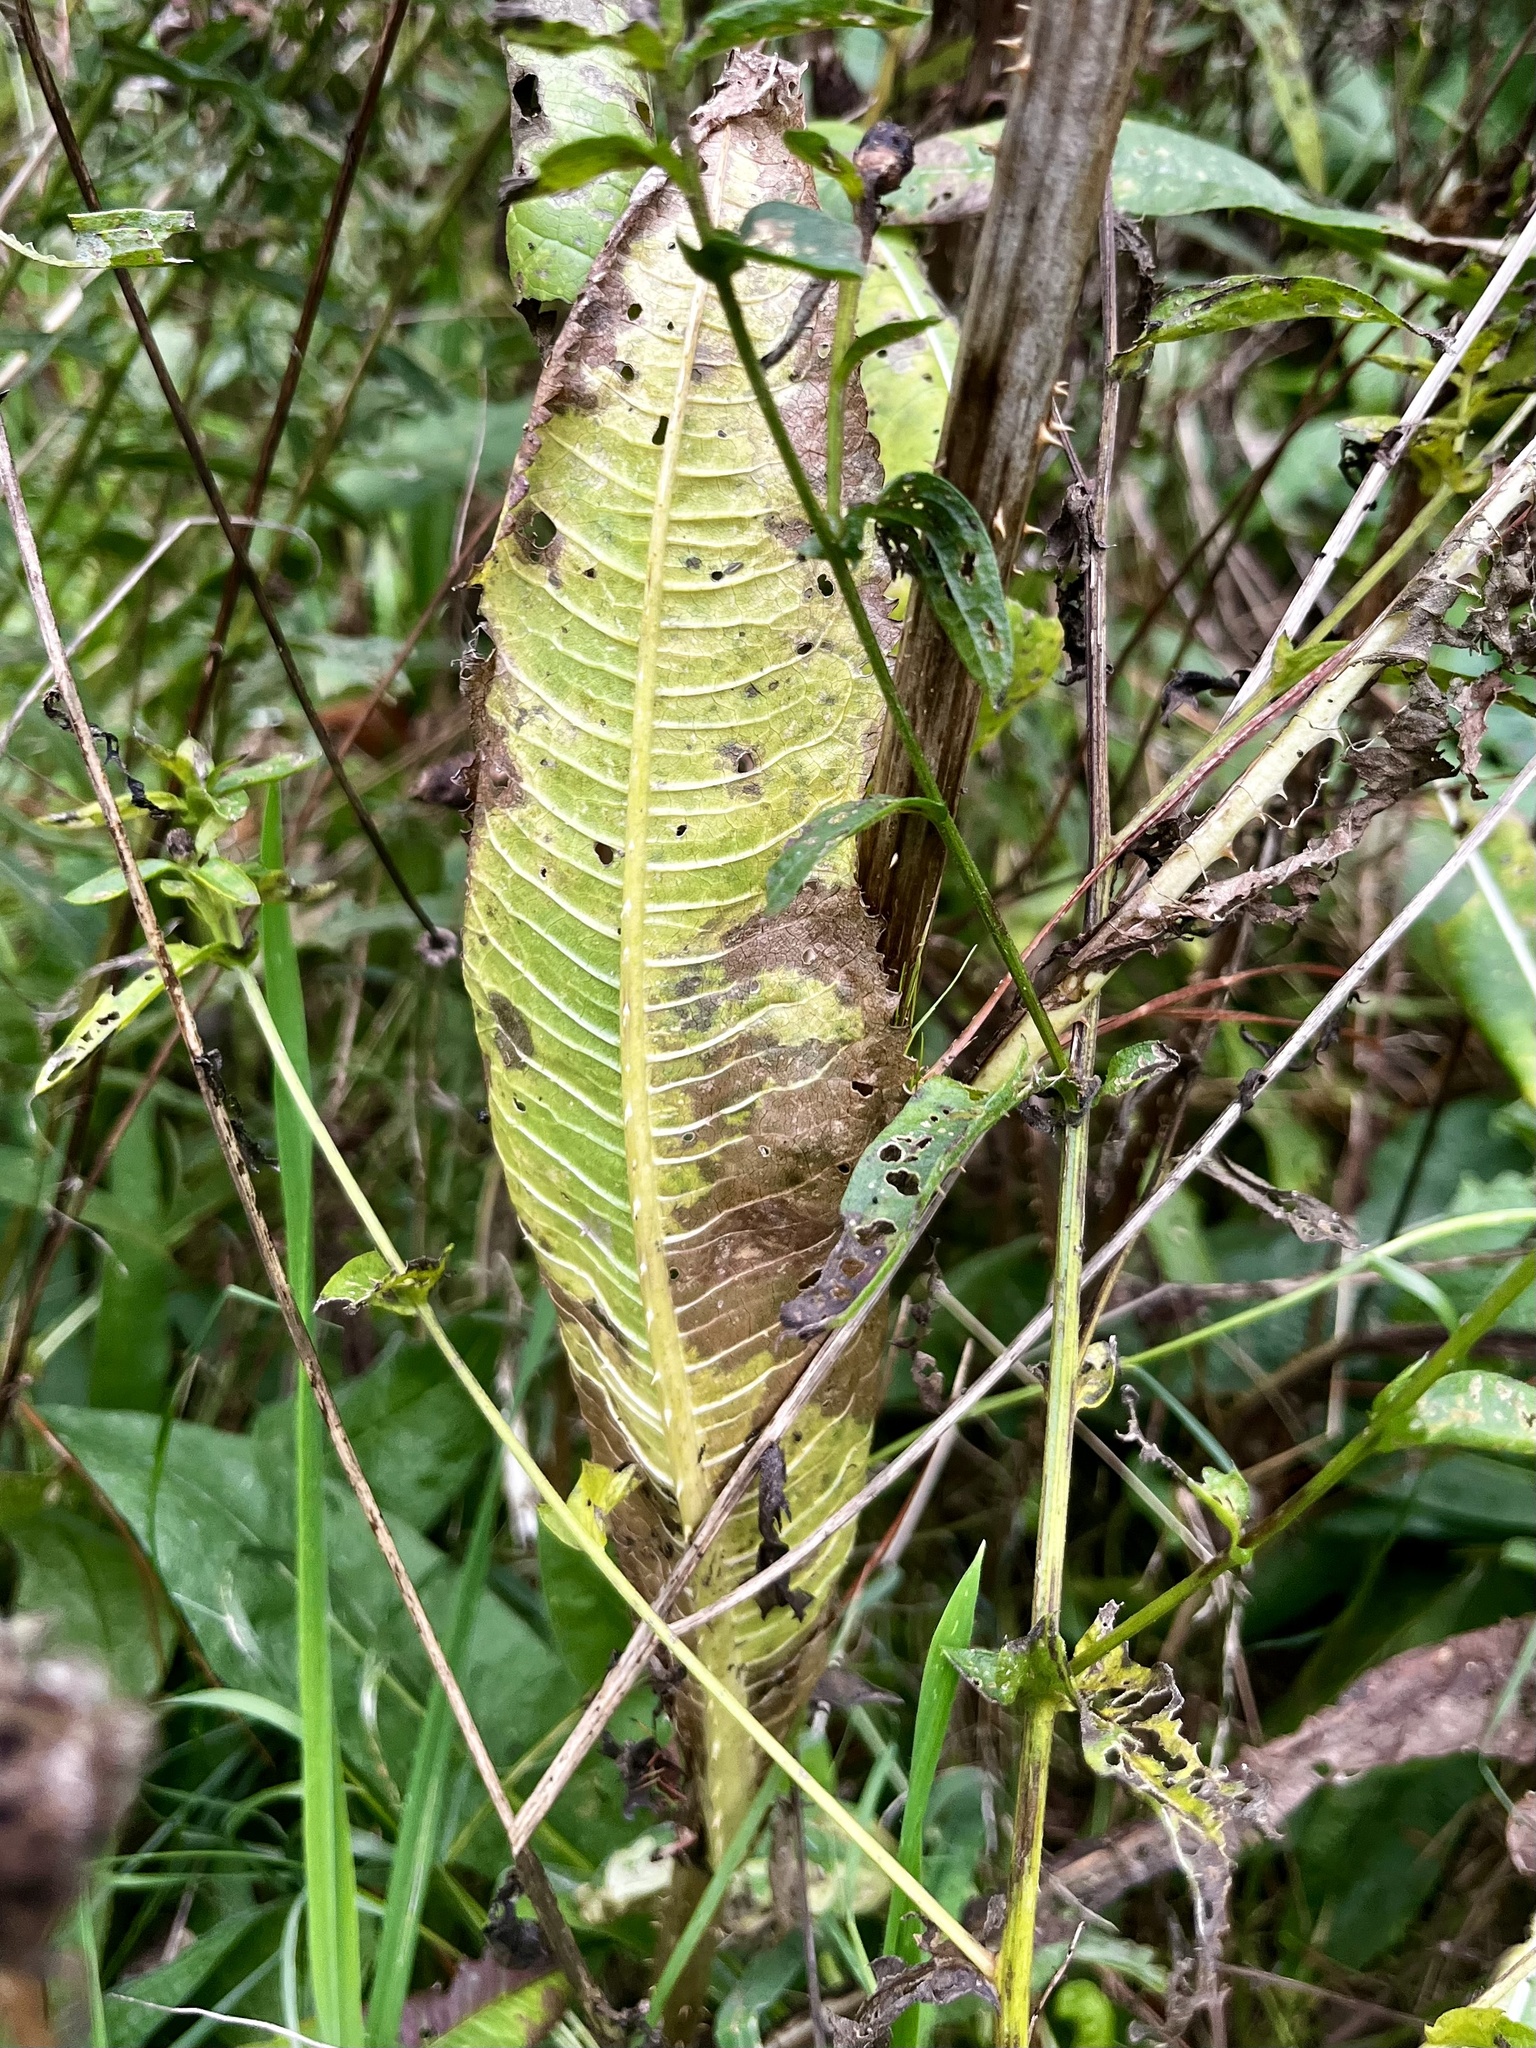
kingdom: Plantae
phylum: Tracheophyta
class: Magnoliopsida
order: Dipsacales
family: Caprifoliaceae
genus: Dipsacus
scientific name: Dipsacus fullonum
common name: Teasel
